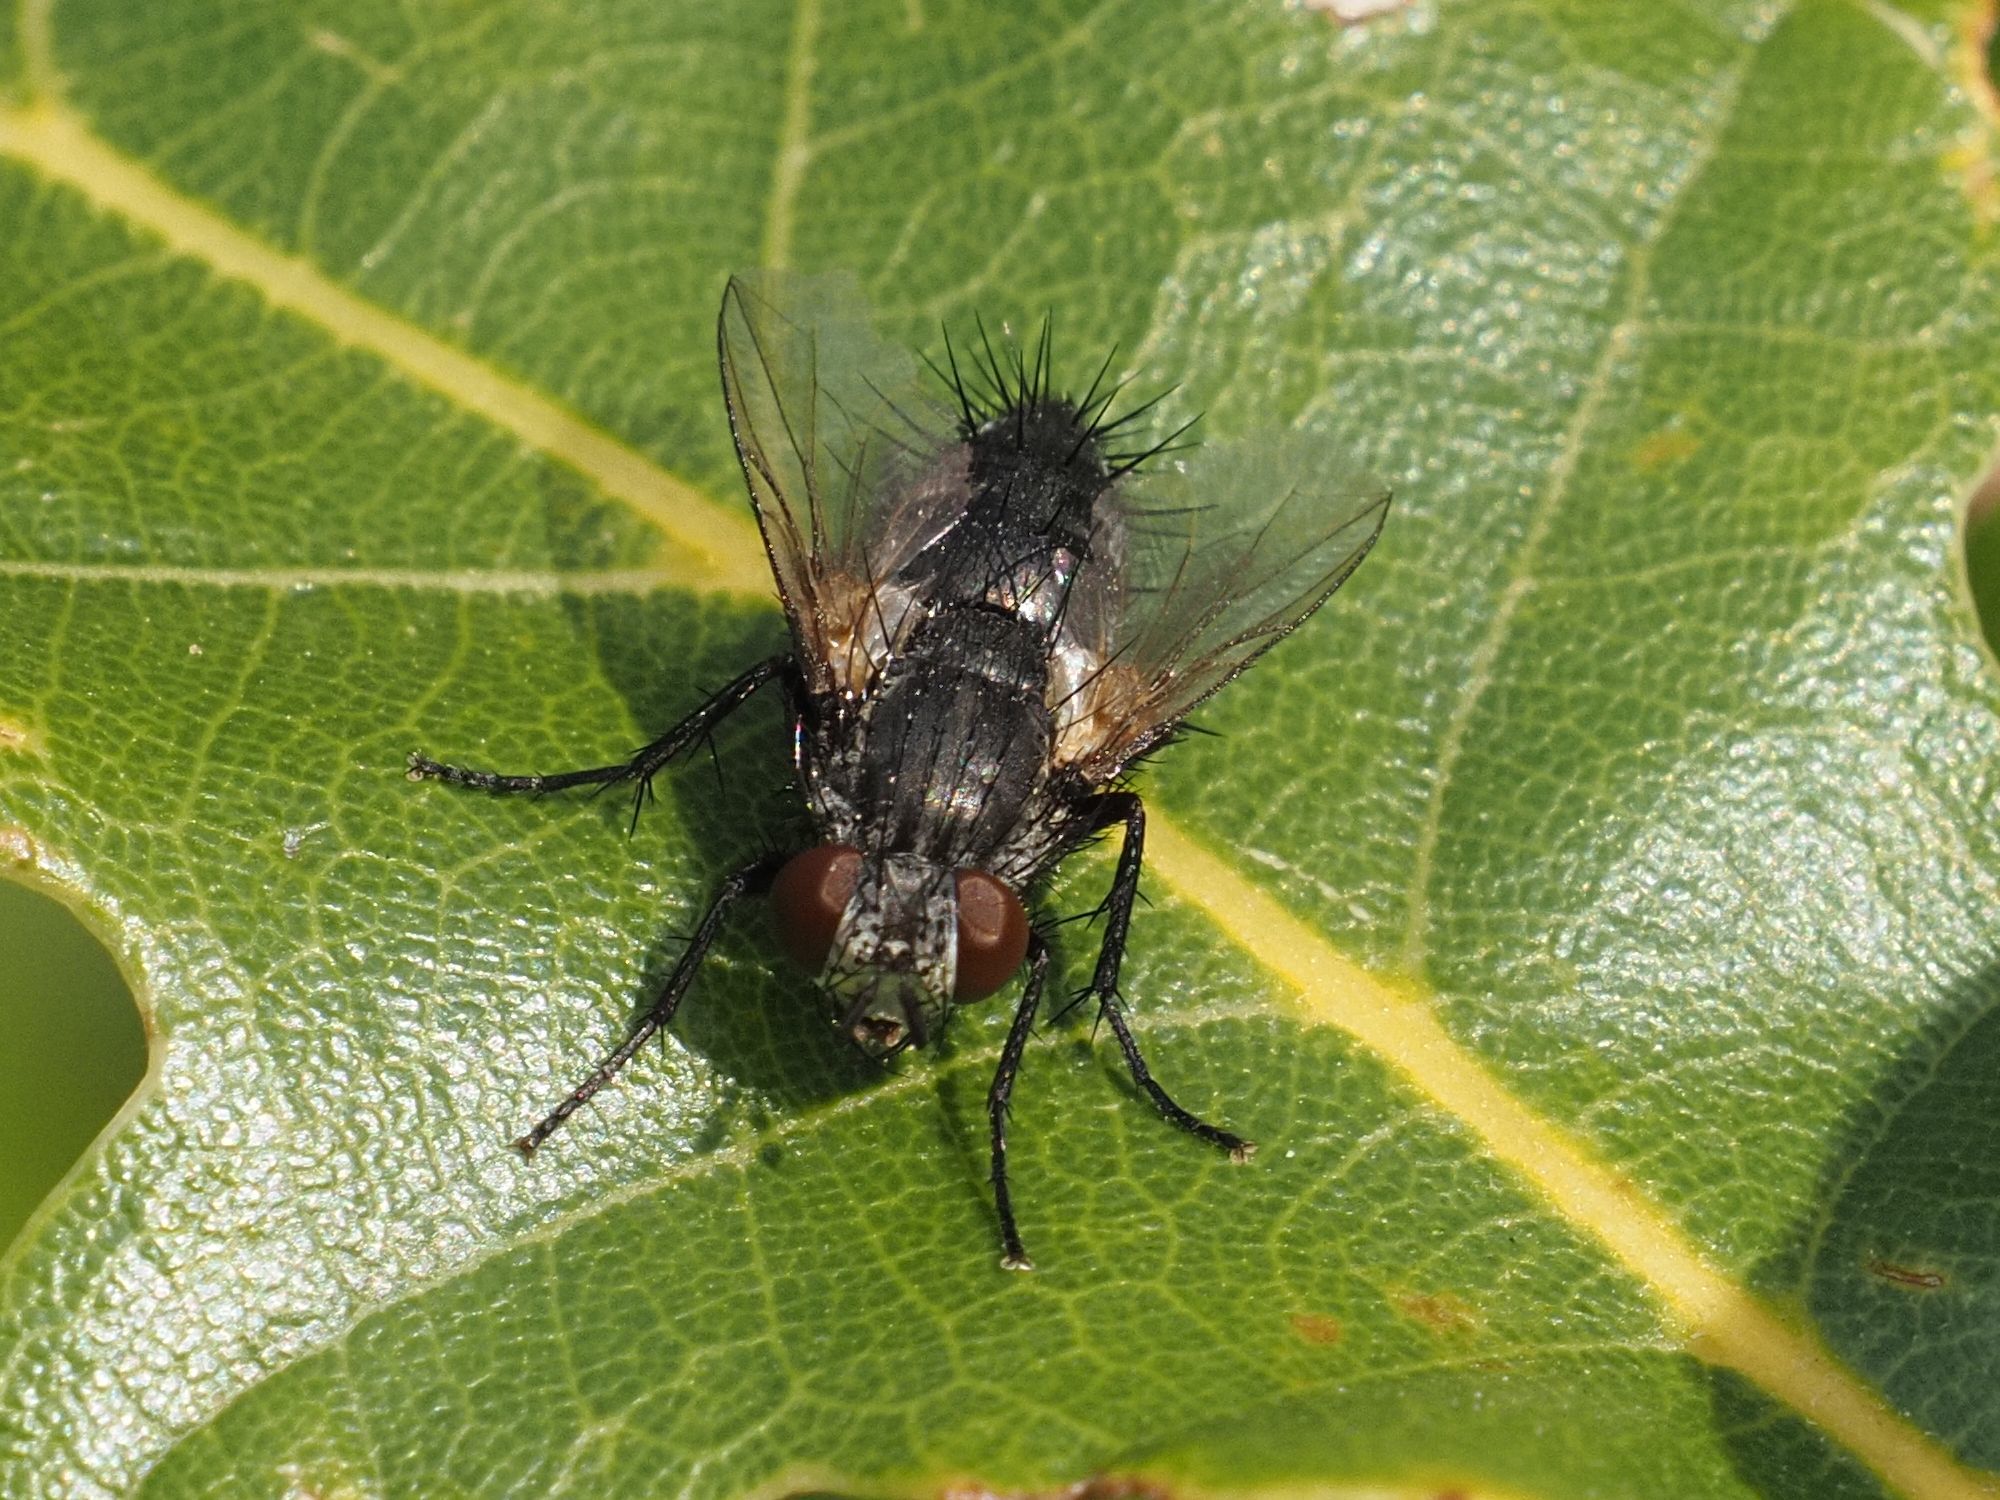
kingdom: Animalia
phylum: Arthropoda
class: Insecta
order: Diptera
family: Tachinidae
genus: Voria
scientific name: Voria ruralis
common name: Parasitic fly
